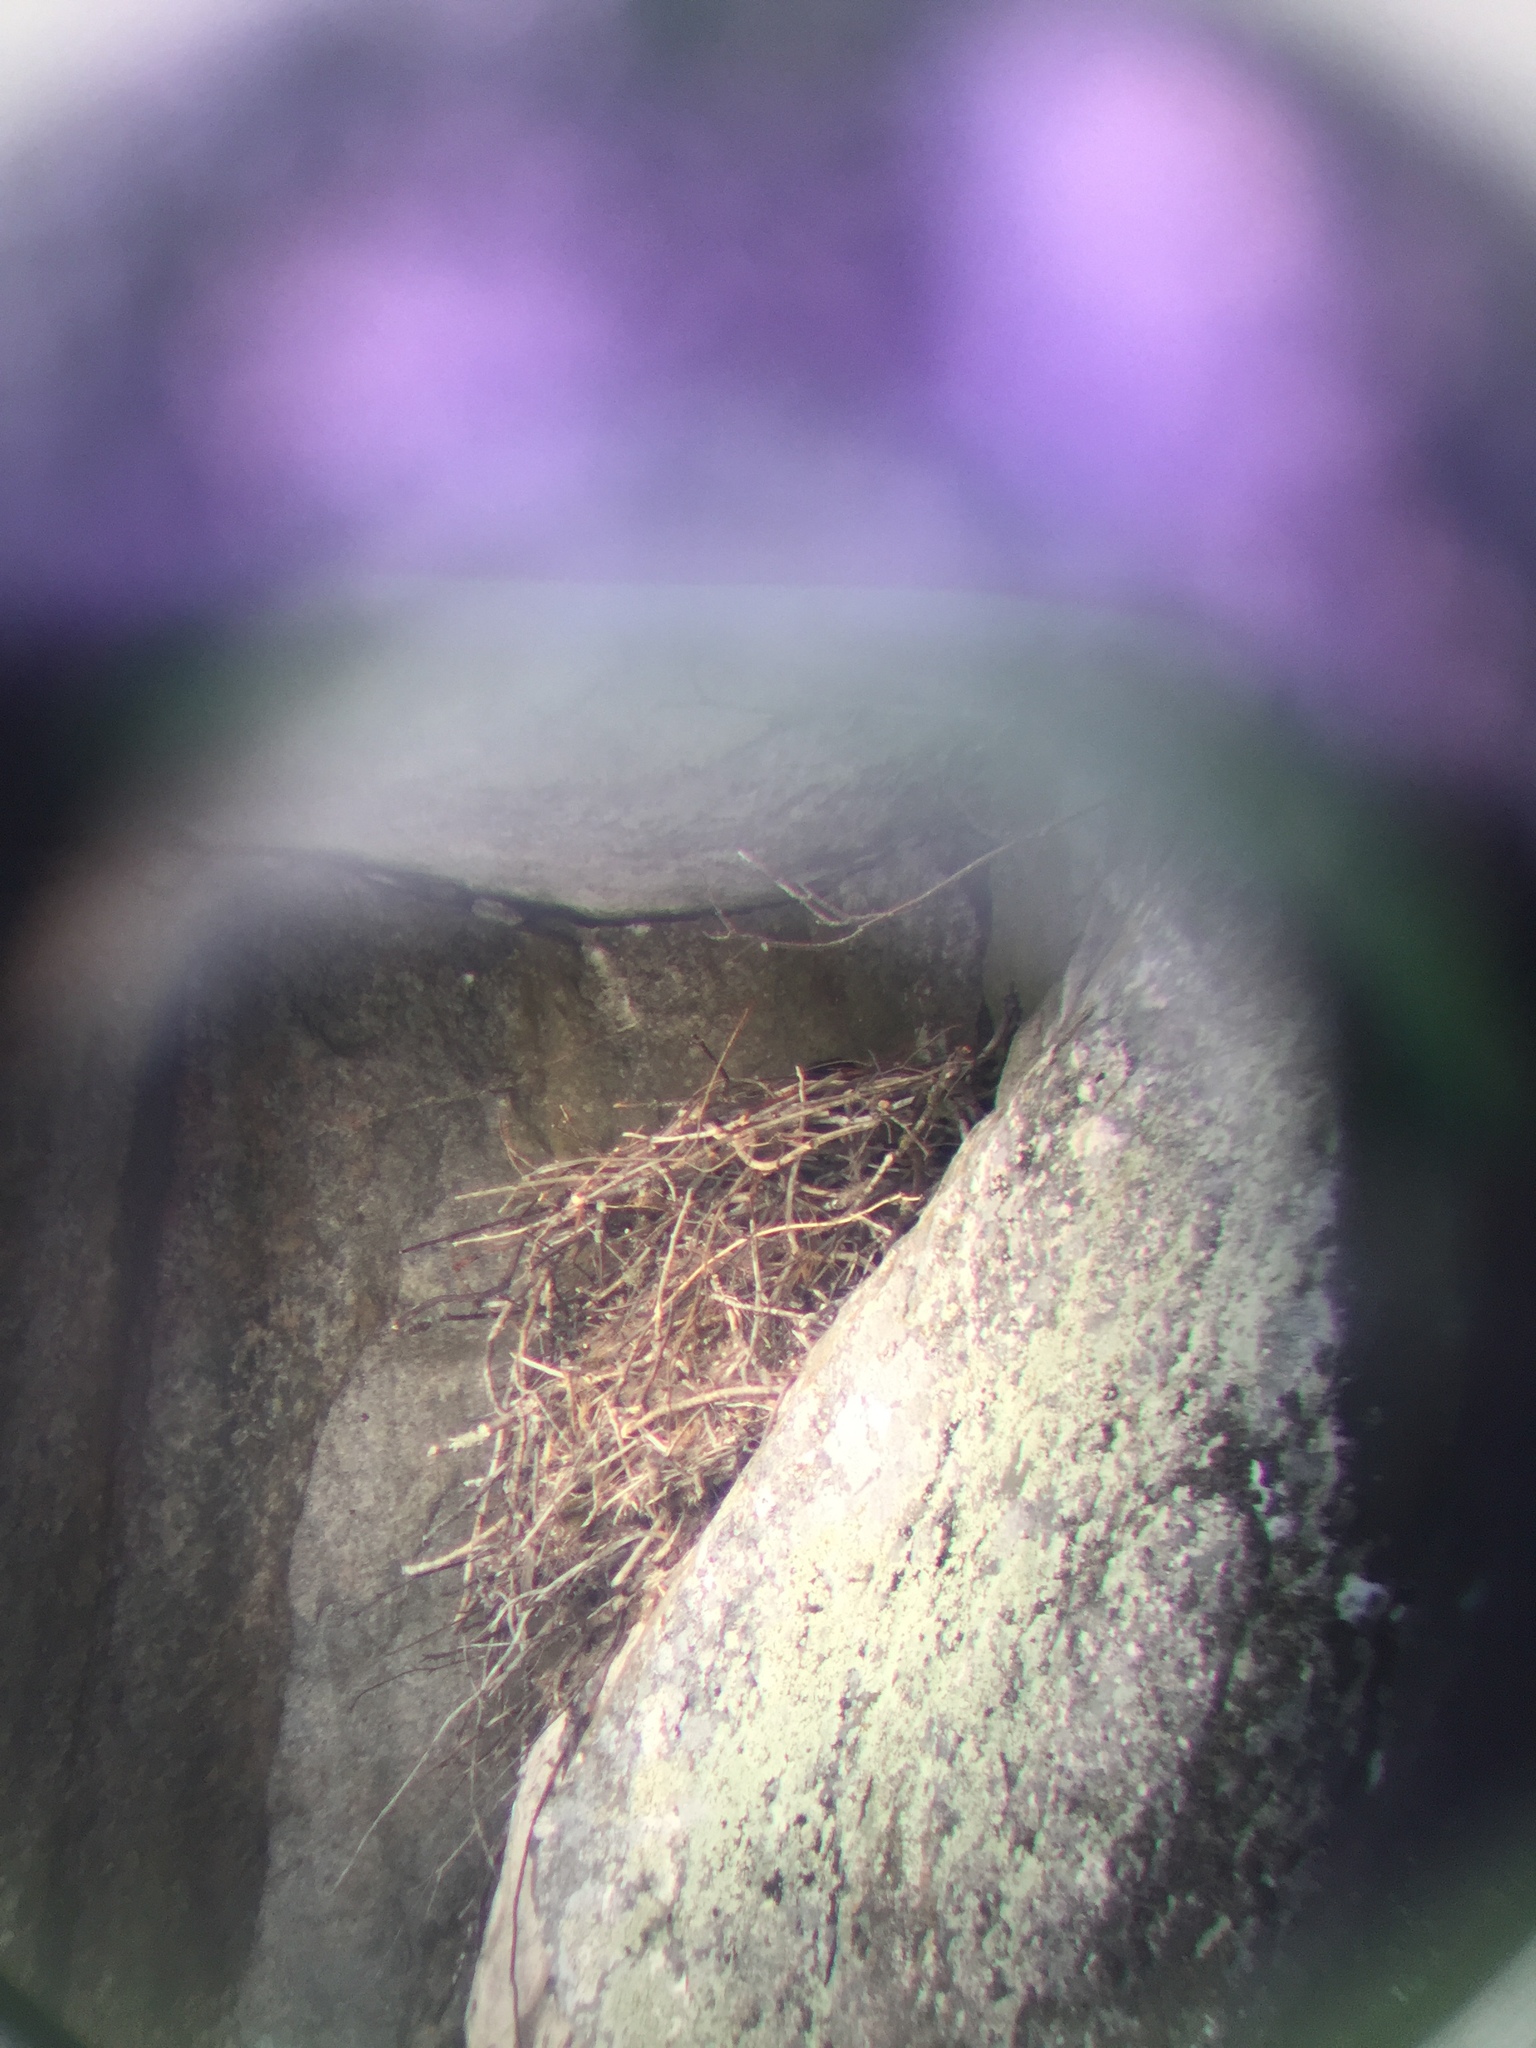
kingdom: Animalia
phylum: Chordata
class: Aves
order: Passeriformes
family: Corvidae
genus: Corvus
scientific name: Corvus corax
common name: Common raven
